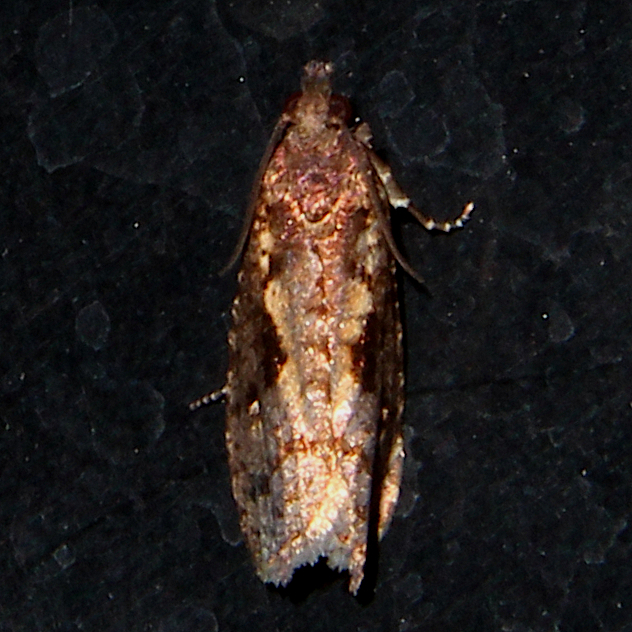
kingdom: Animalia
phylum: Arthropoda
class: Insecta
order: Lepidoptera
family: Tortricidae
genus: Cryptaspasma
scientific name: Cryptaspasma querula
